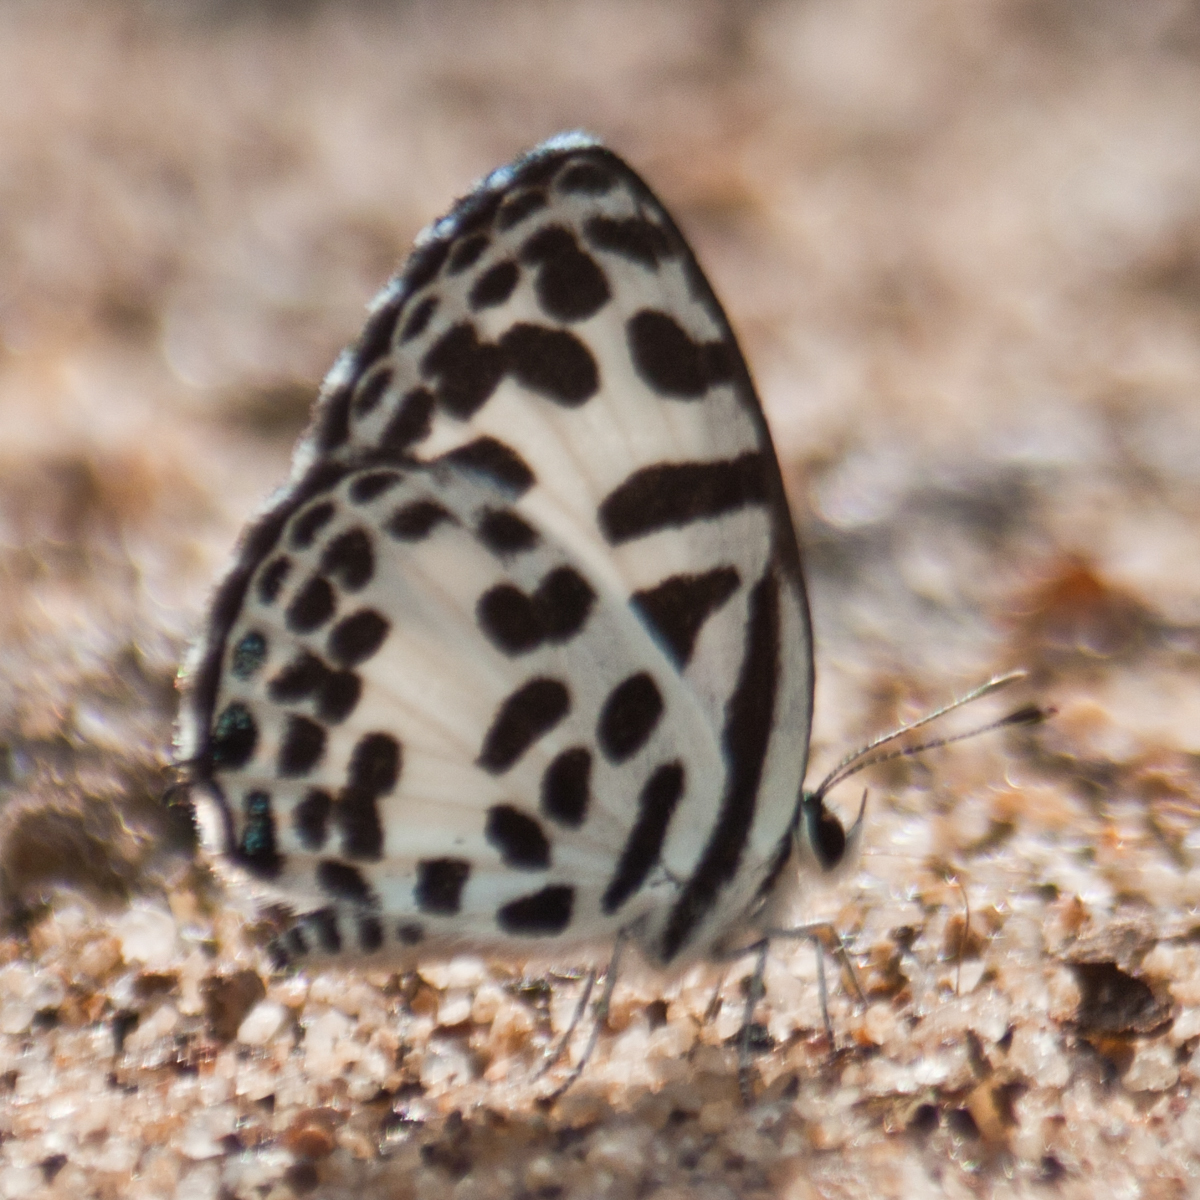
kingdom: Animalia
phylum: Arthropoda
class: Insecta
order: Lepidoptera
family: Lycaenidae
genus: Castalius
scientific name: Castalius rosimon
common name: Common pierrot
